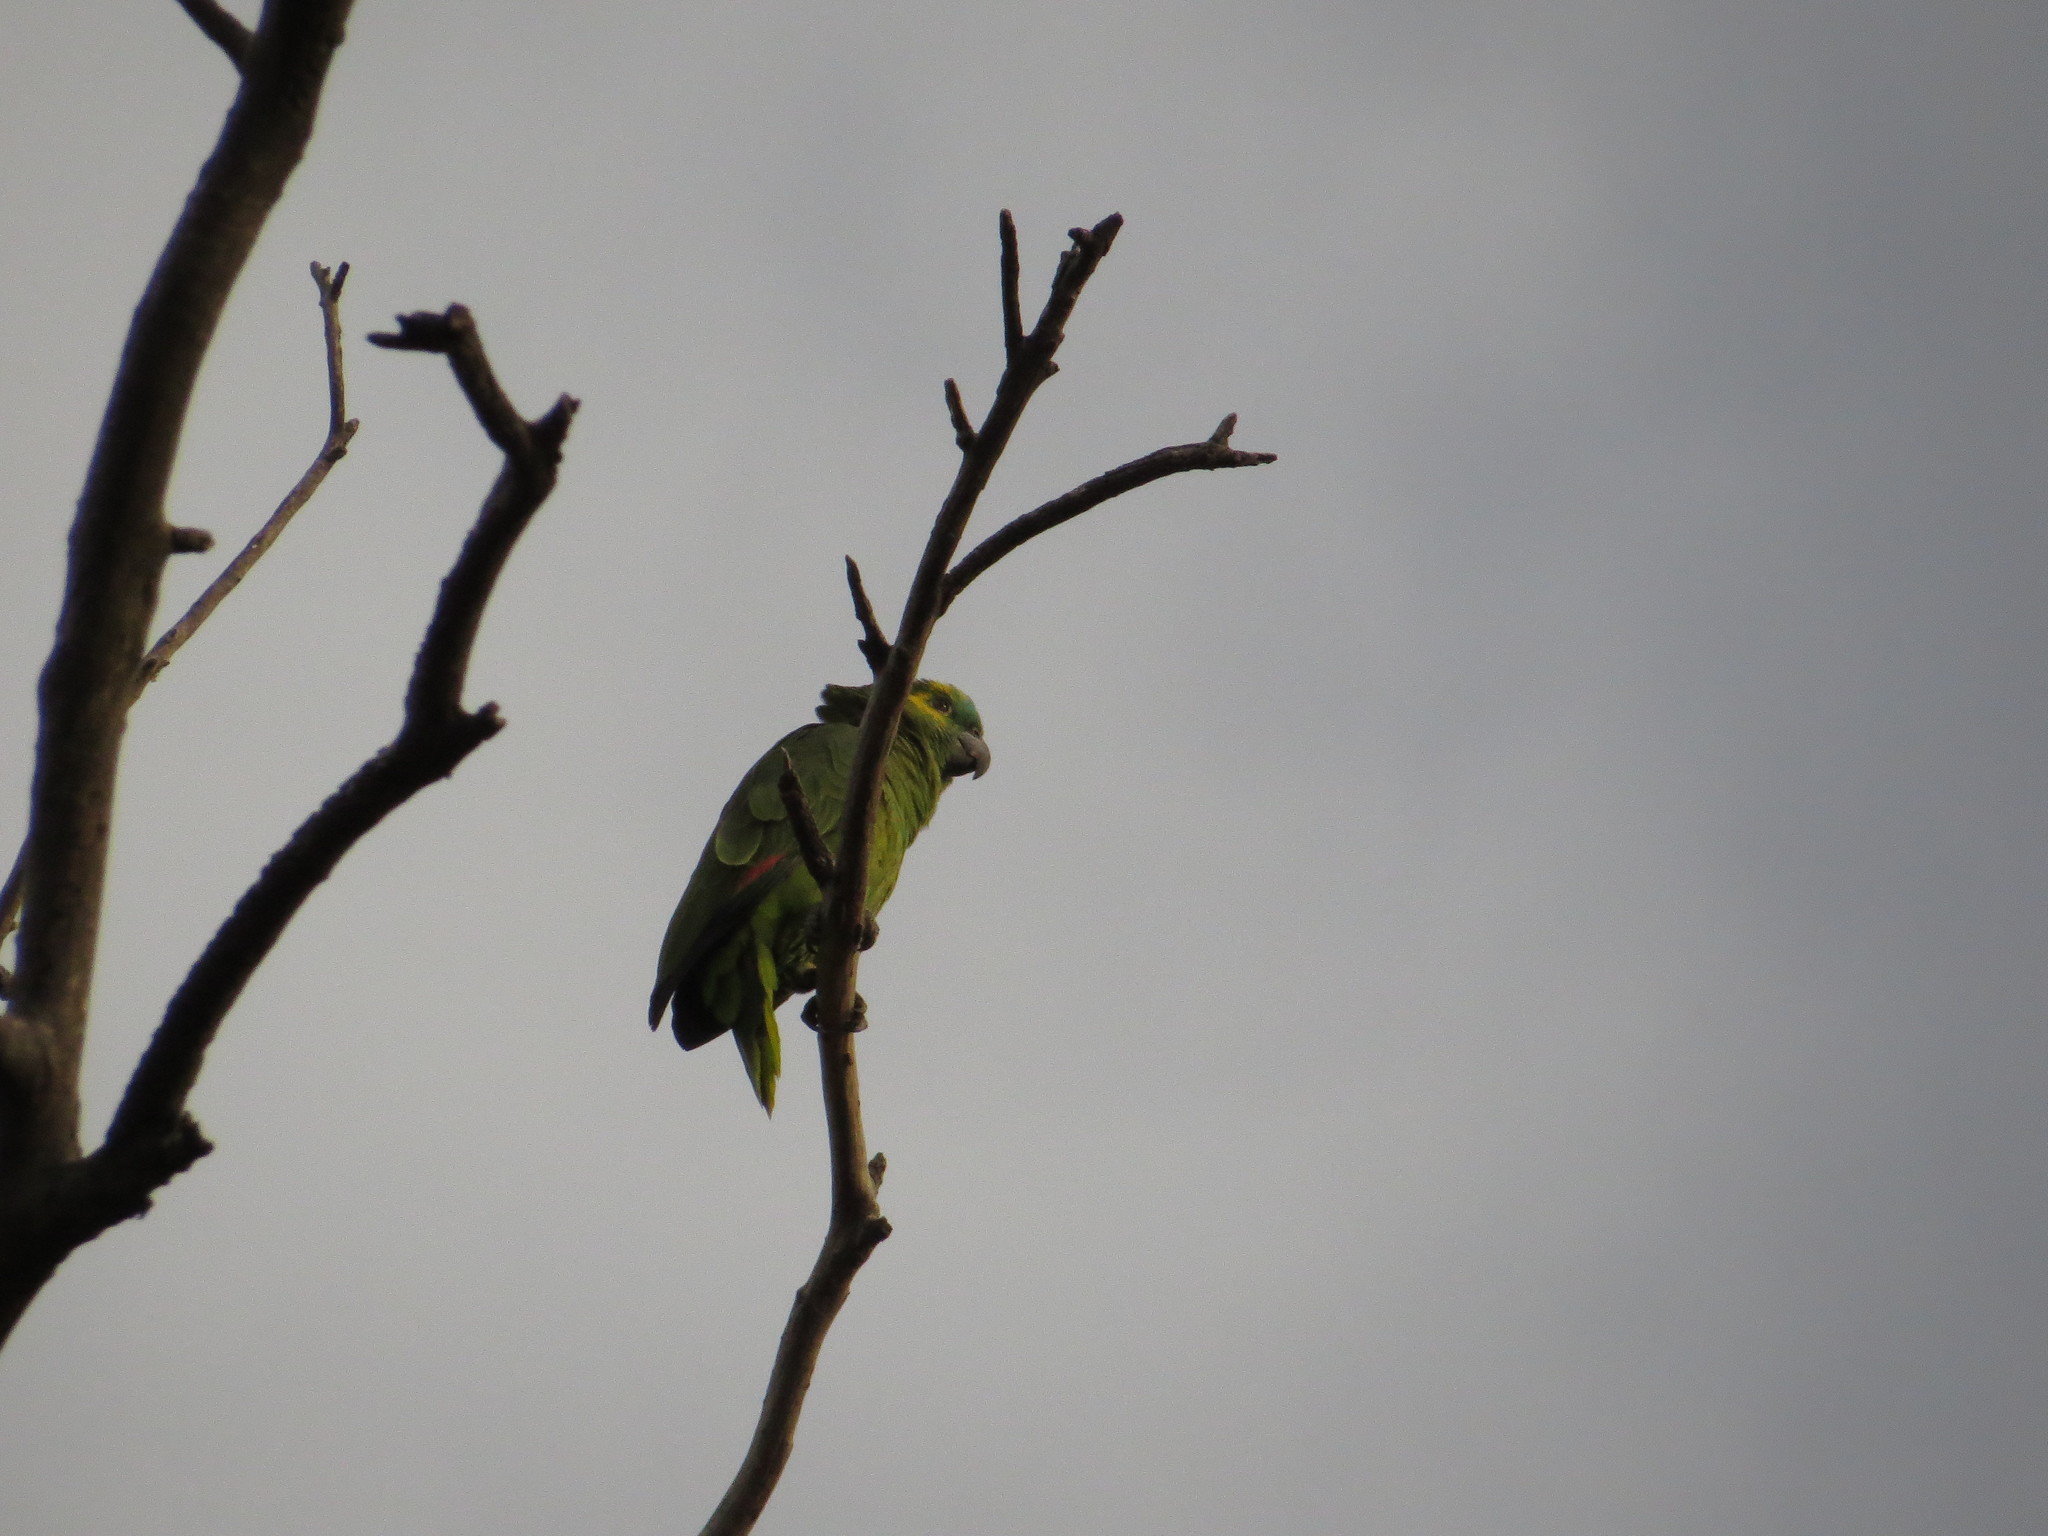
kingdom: Animalia
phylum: Chordata
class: Aves
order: Psittaciformes
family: Psittacidae
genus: Amazona
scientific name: Amazona aestiva
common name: Turquoise-fronted amazon
